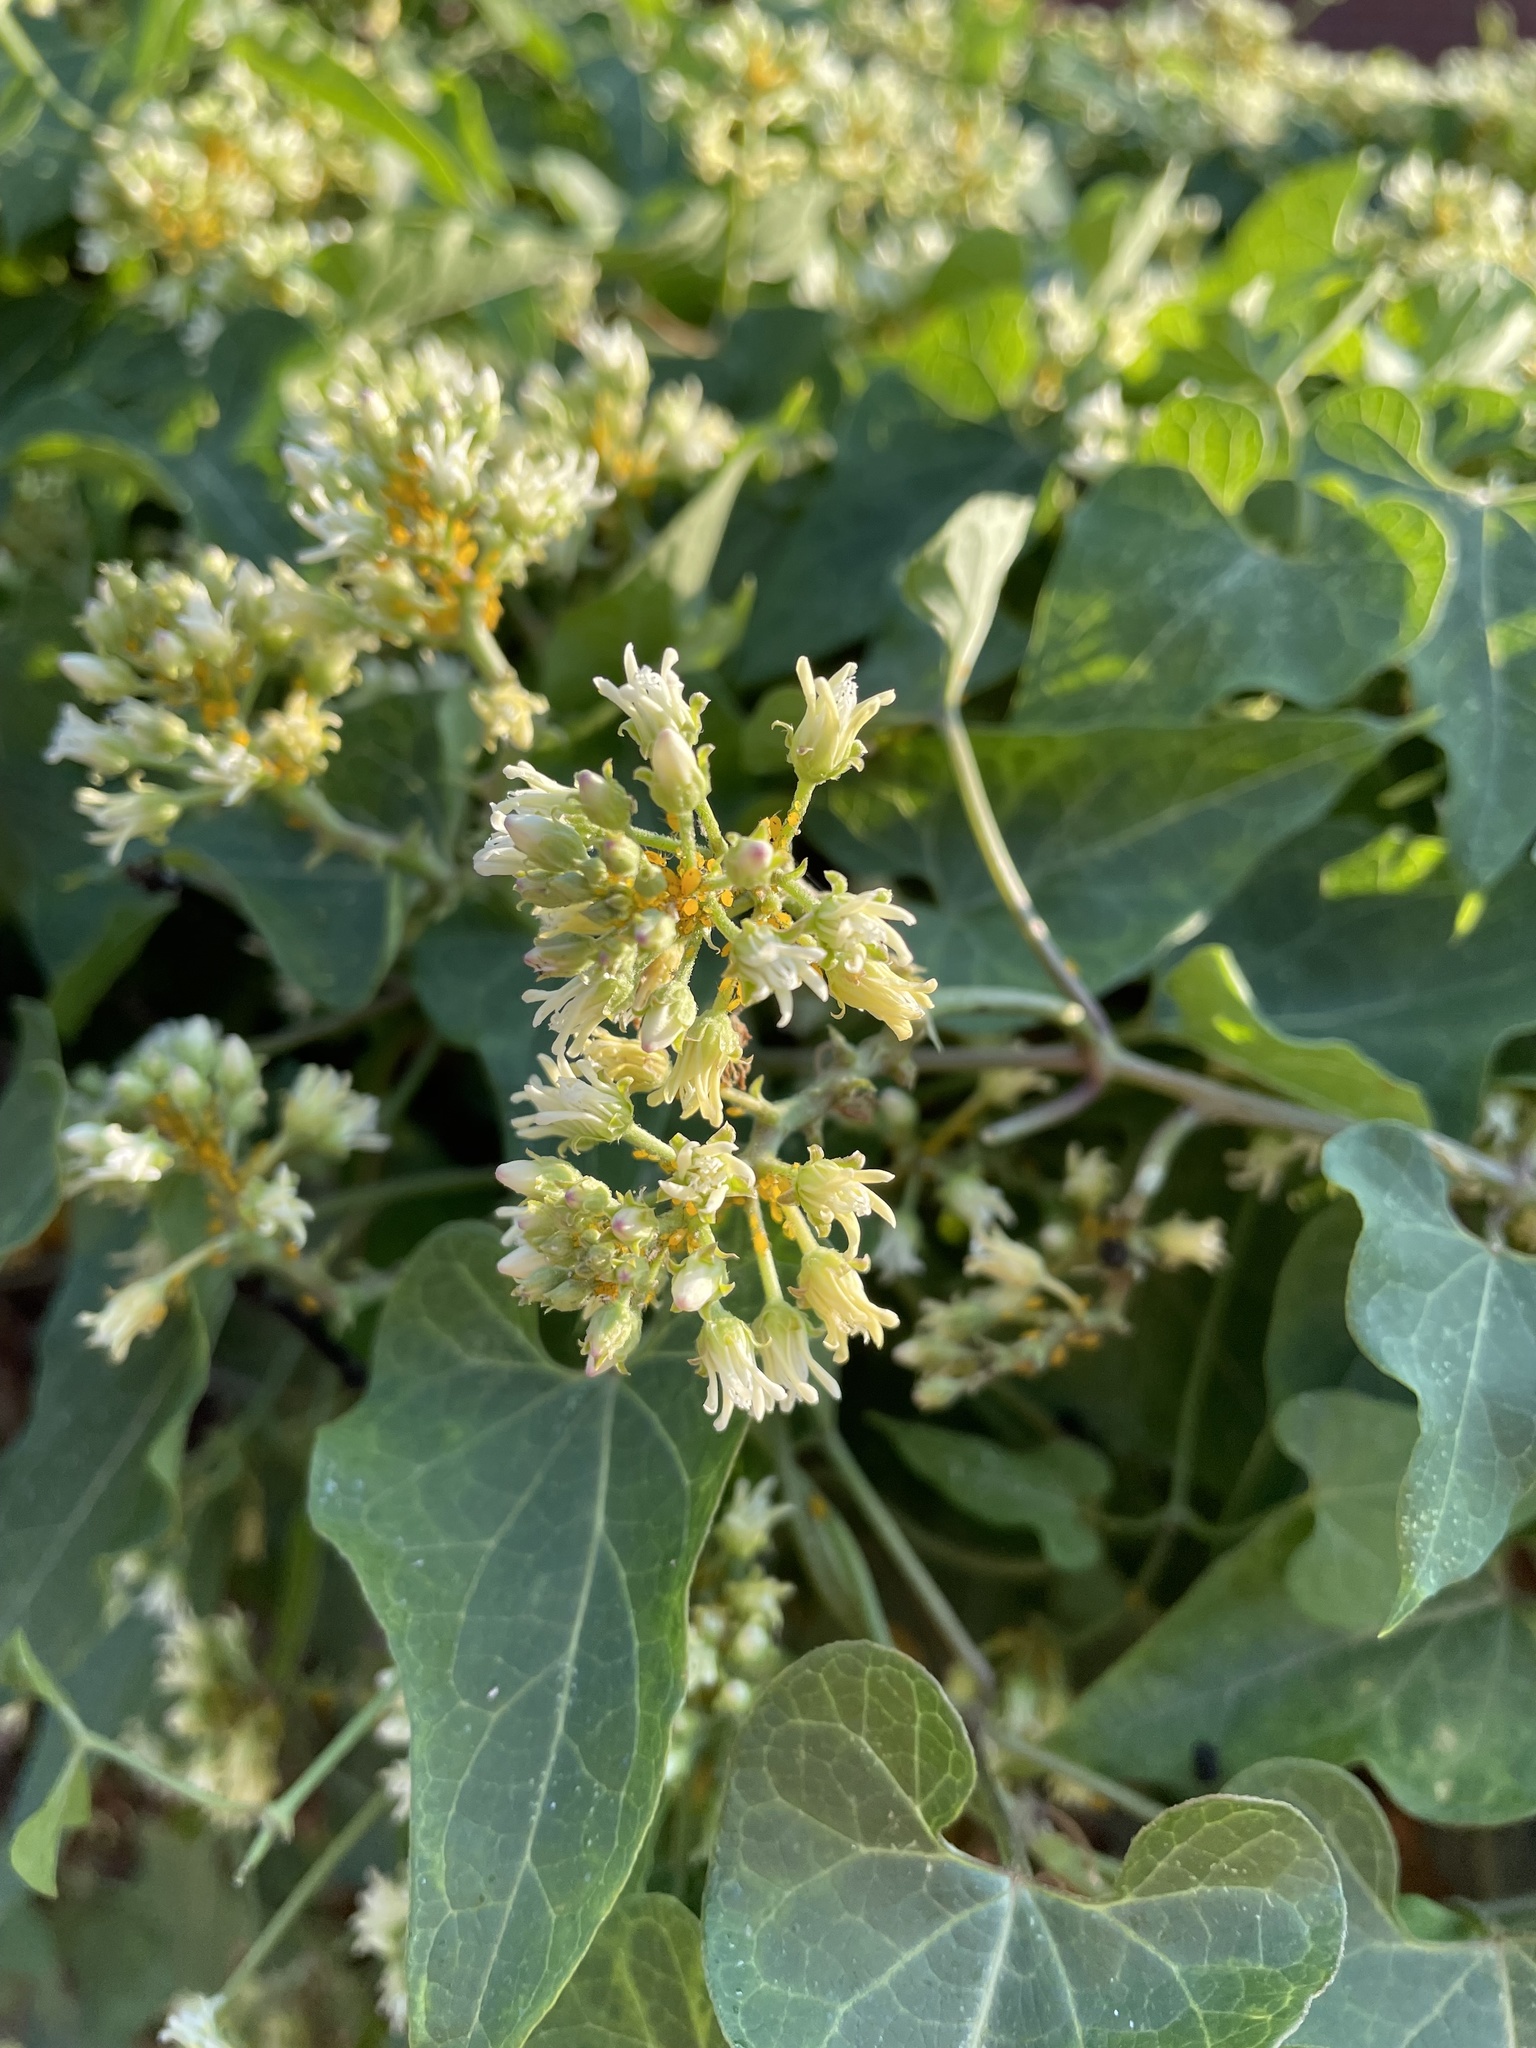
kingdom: Plantae
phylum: Tracheophyta
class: Magnoliopsida
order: Gentianales
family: Apocynaceae
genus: Cynanchum
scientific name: Cynanchum laeve
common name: Sandvine
